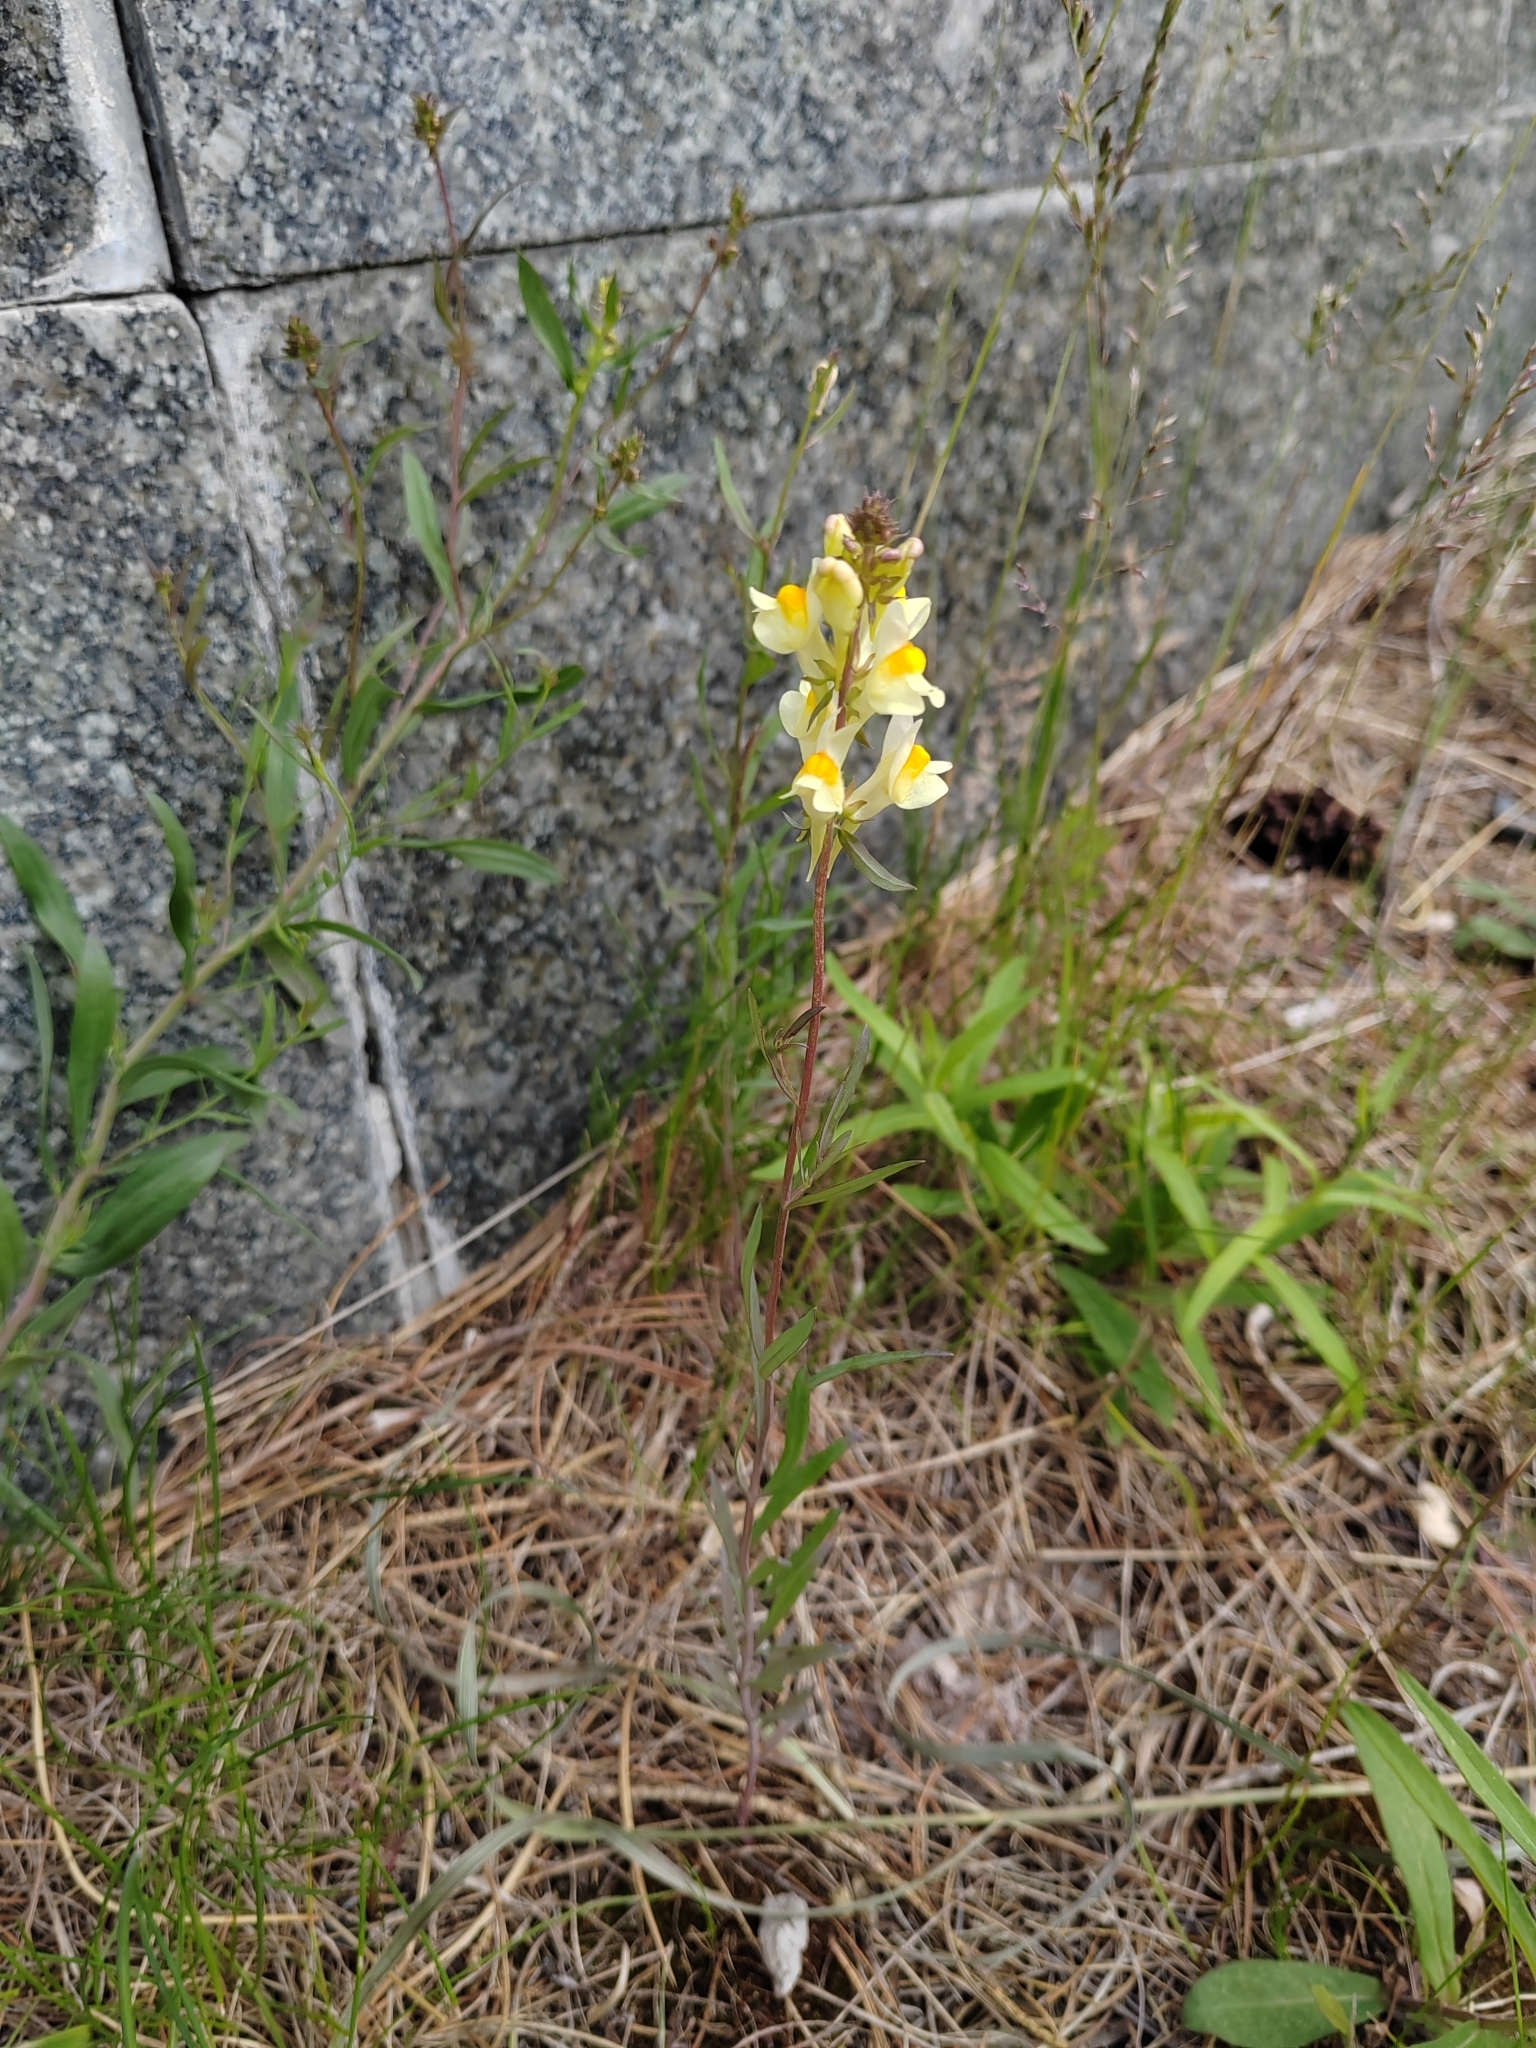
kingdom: Plantae
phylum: Tracheophyta
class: Magnoliopsida
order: Lamiales
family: Plantaginaceae
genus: Linaria
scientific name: Linaria vulgaris
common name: Butter and eggs
